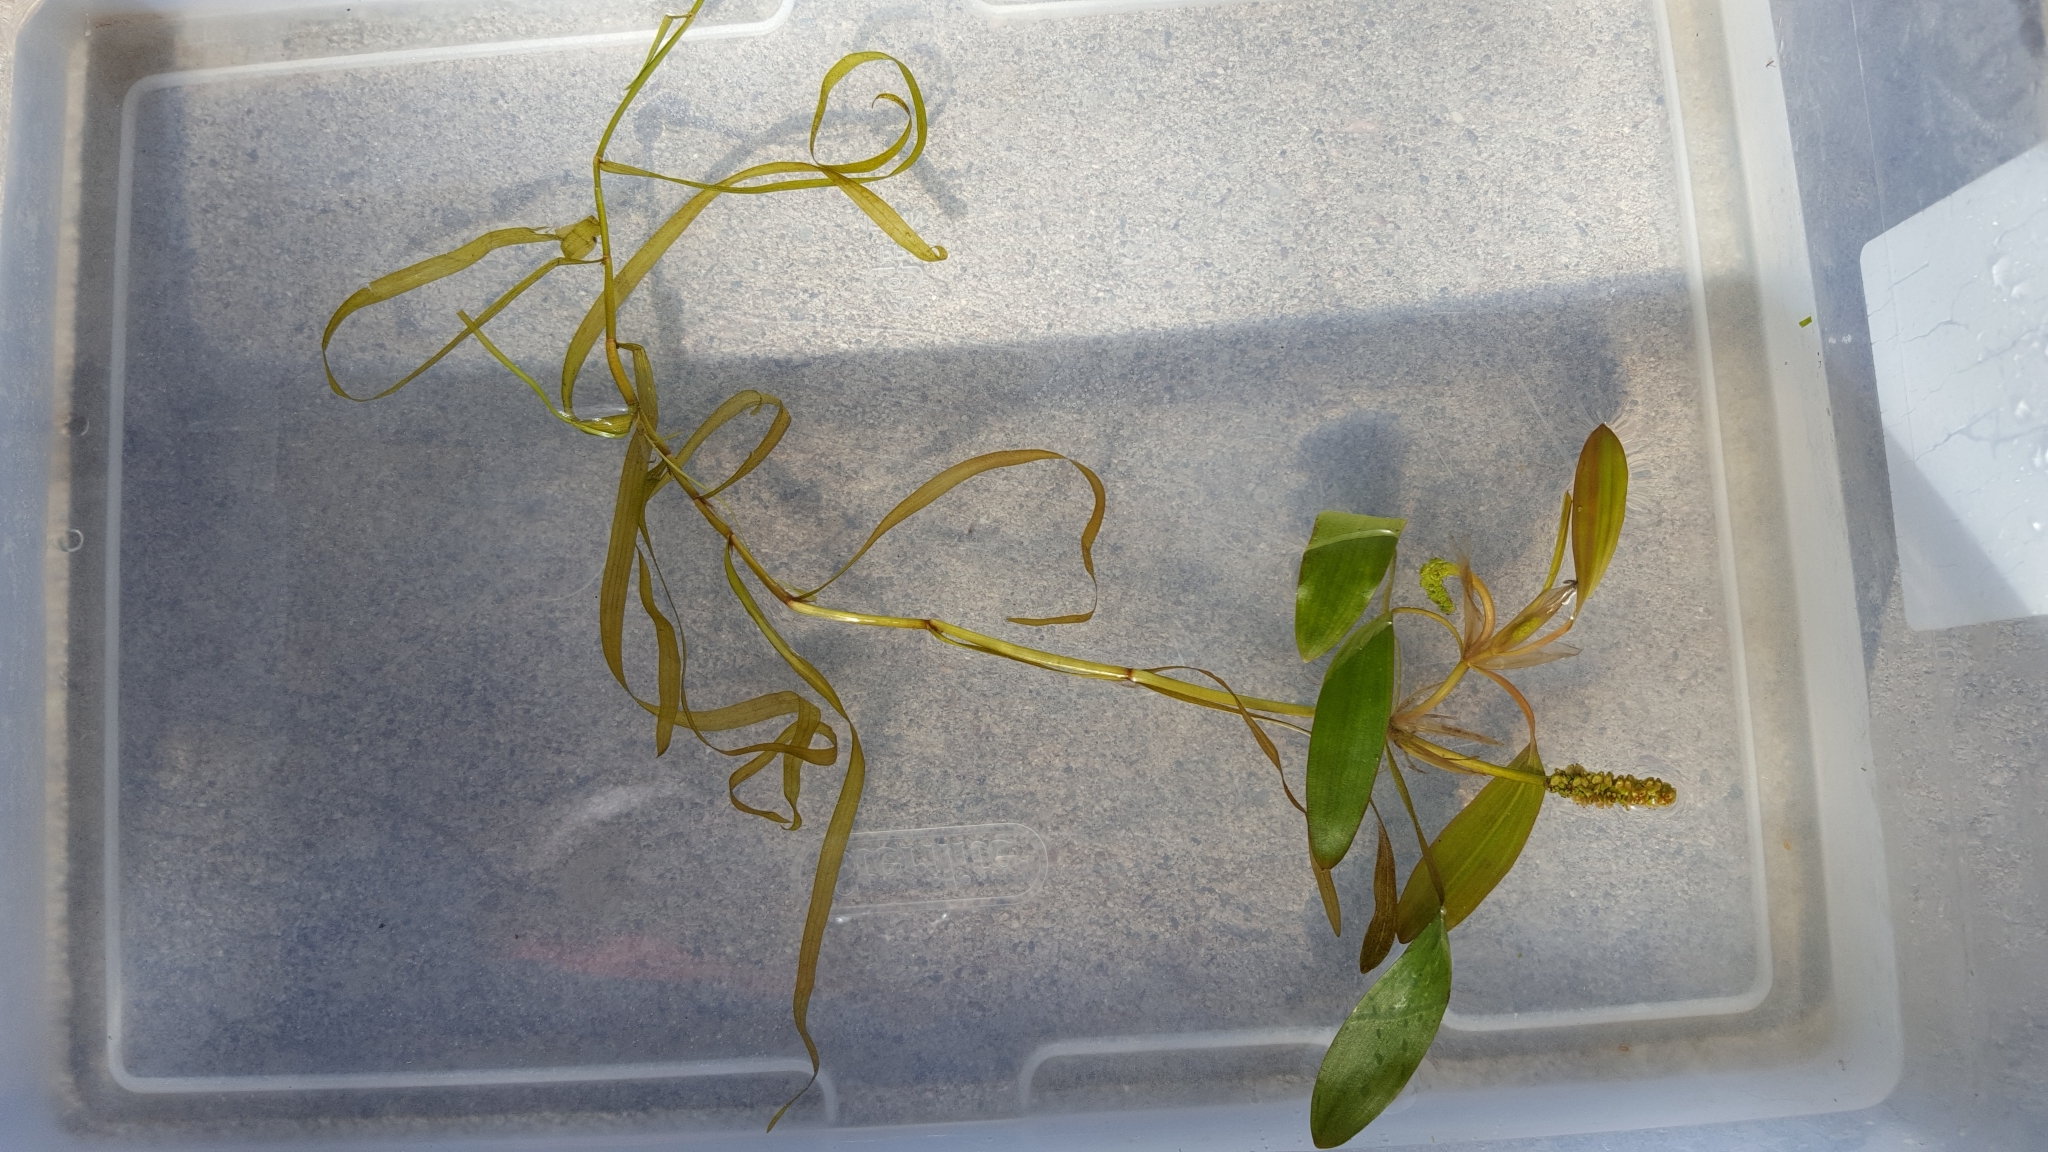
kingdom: Plantae
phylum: Tracheophyta
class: Liliopsida
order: Alismatales
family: Potamogetonaceae
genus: Potamogeton
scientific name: Potamogeton epihydrus
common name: American pondweed
